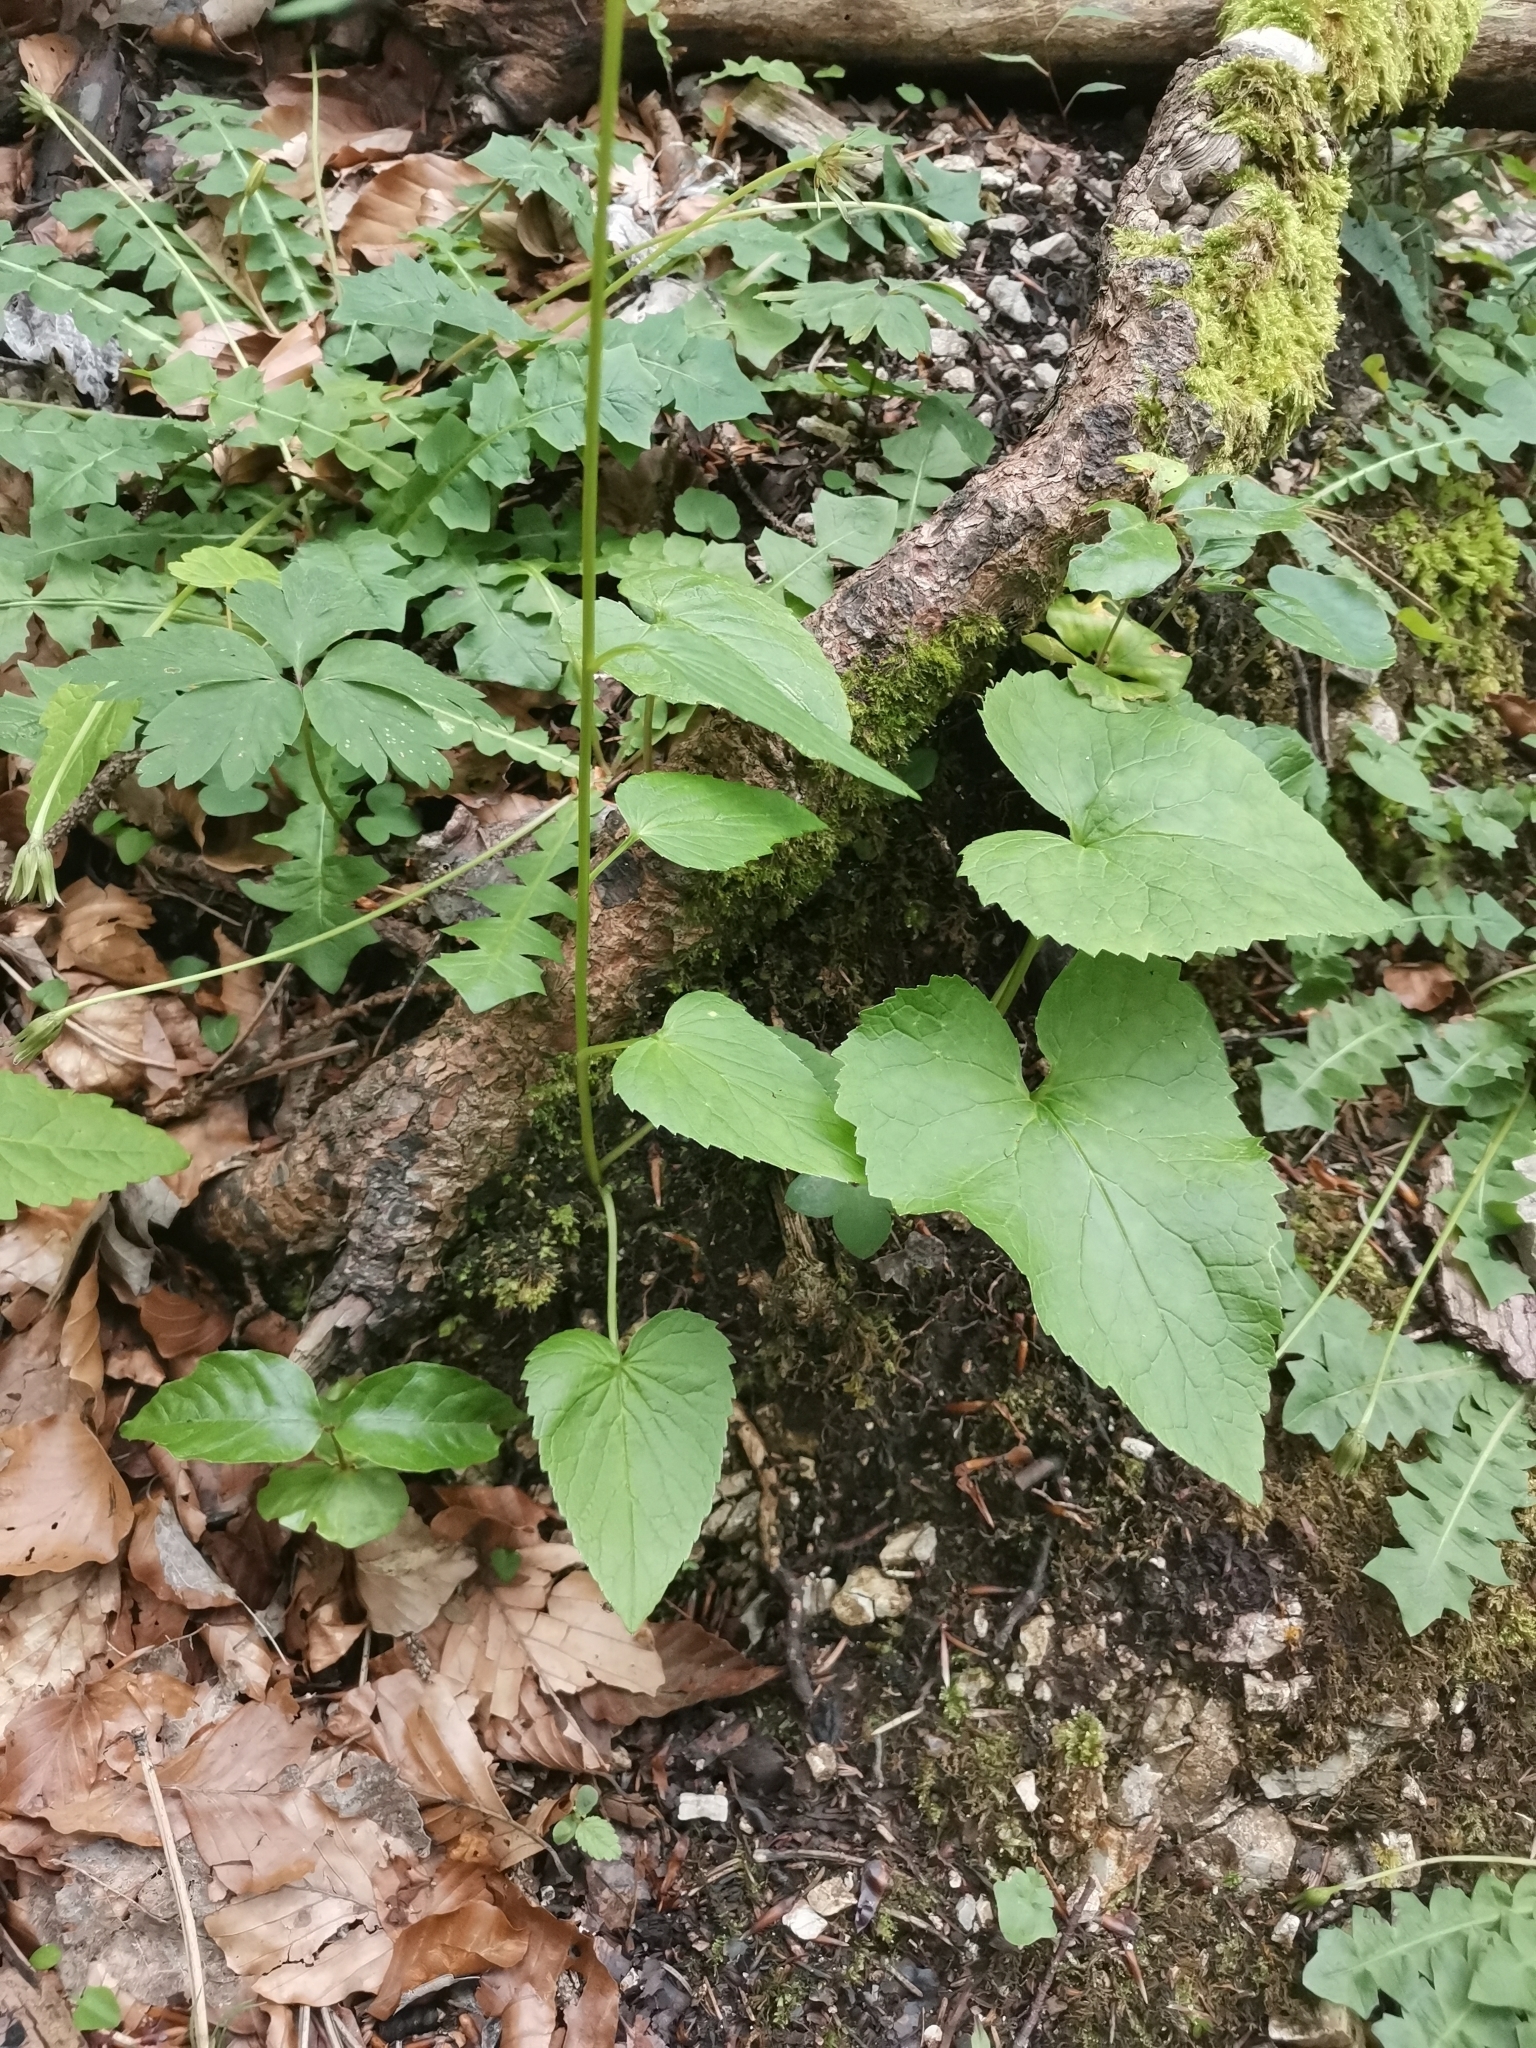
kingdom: Plantae
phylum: Tracheophyta
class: Magnoliopsida
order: Asterales
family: Campanulaceae
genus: Phyteuma
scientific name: Phyteuma ovatum
